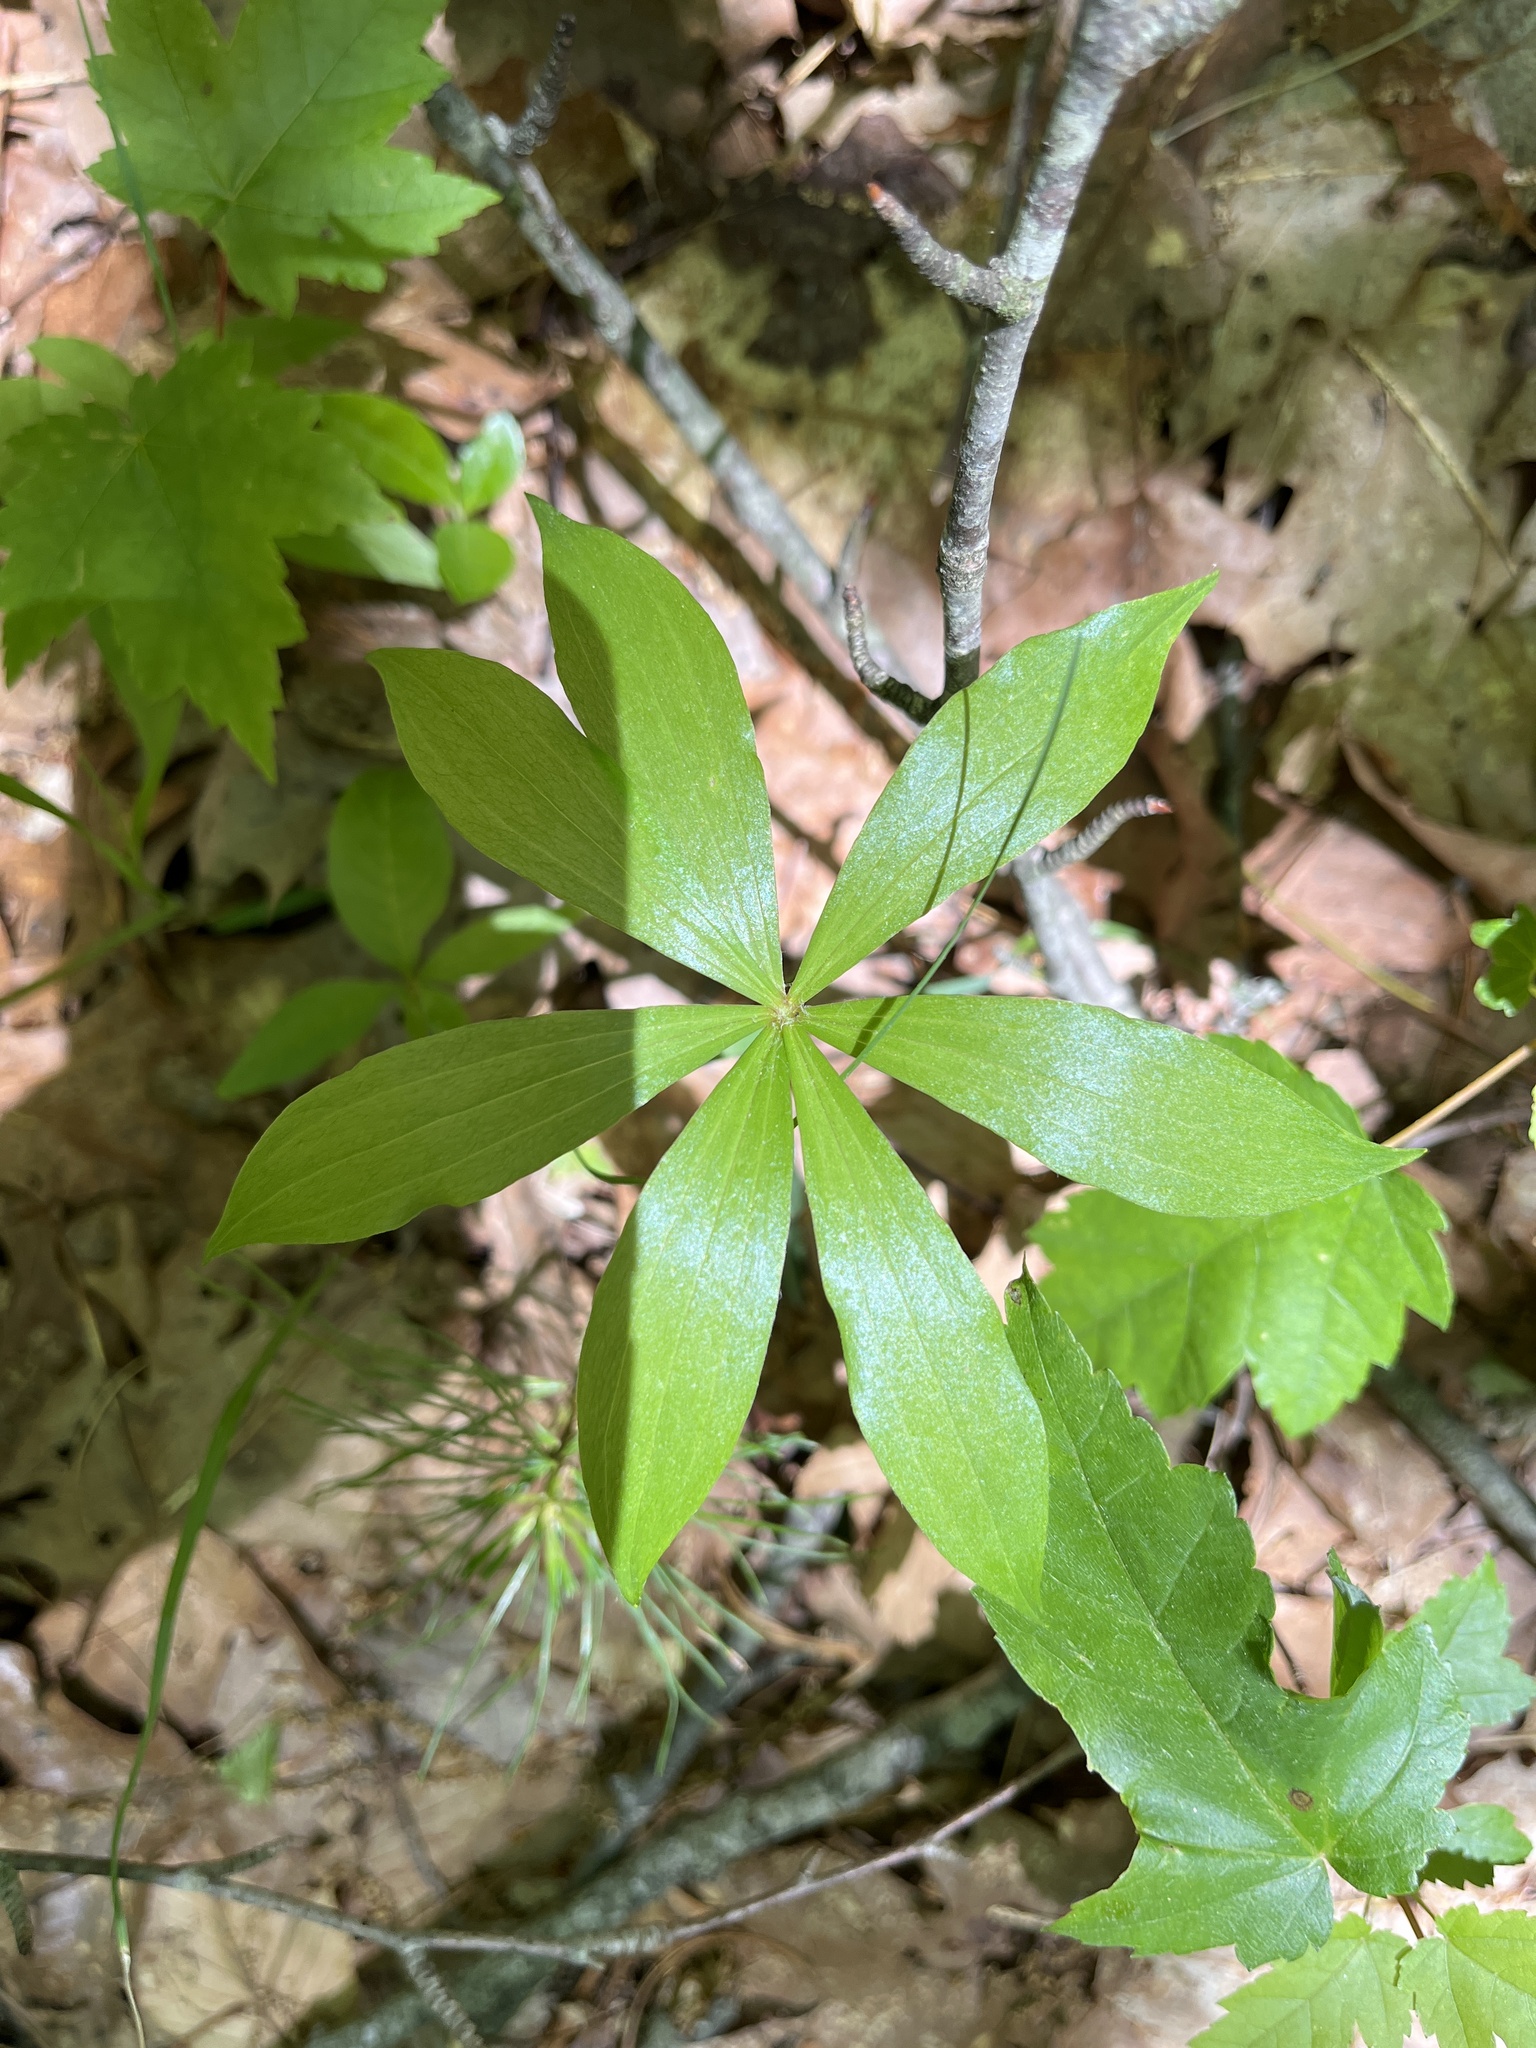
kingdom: Plantae
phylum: Tracheophyta
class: Liliopsida
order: Liliales
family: Liliaceae
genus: Medeola
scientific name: Medeola virginiana
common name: Indian cucumber-root
